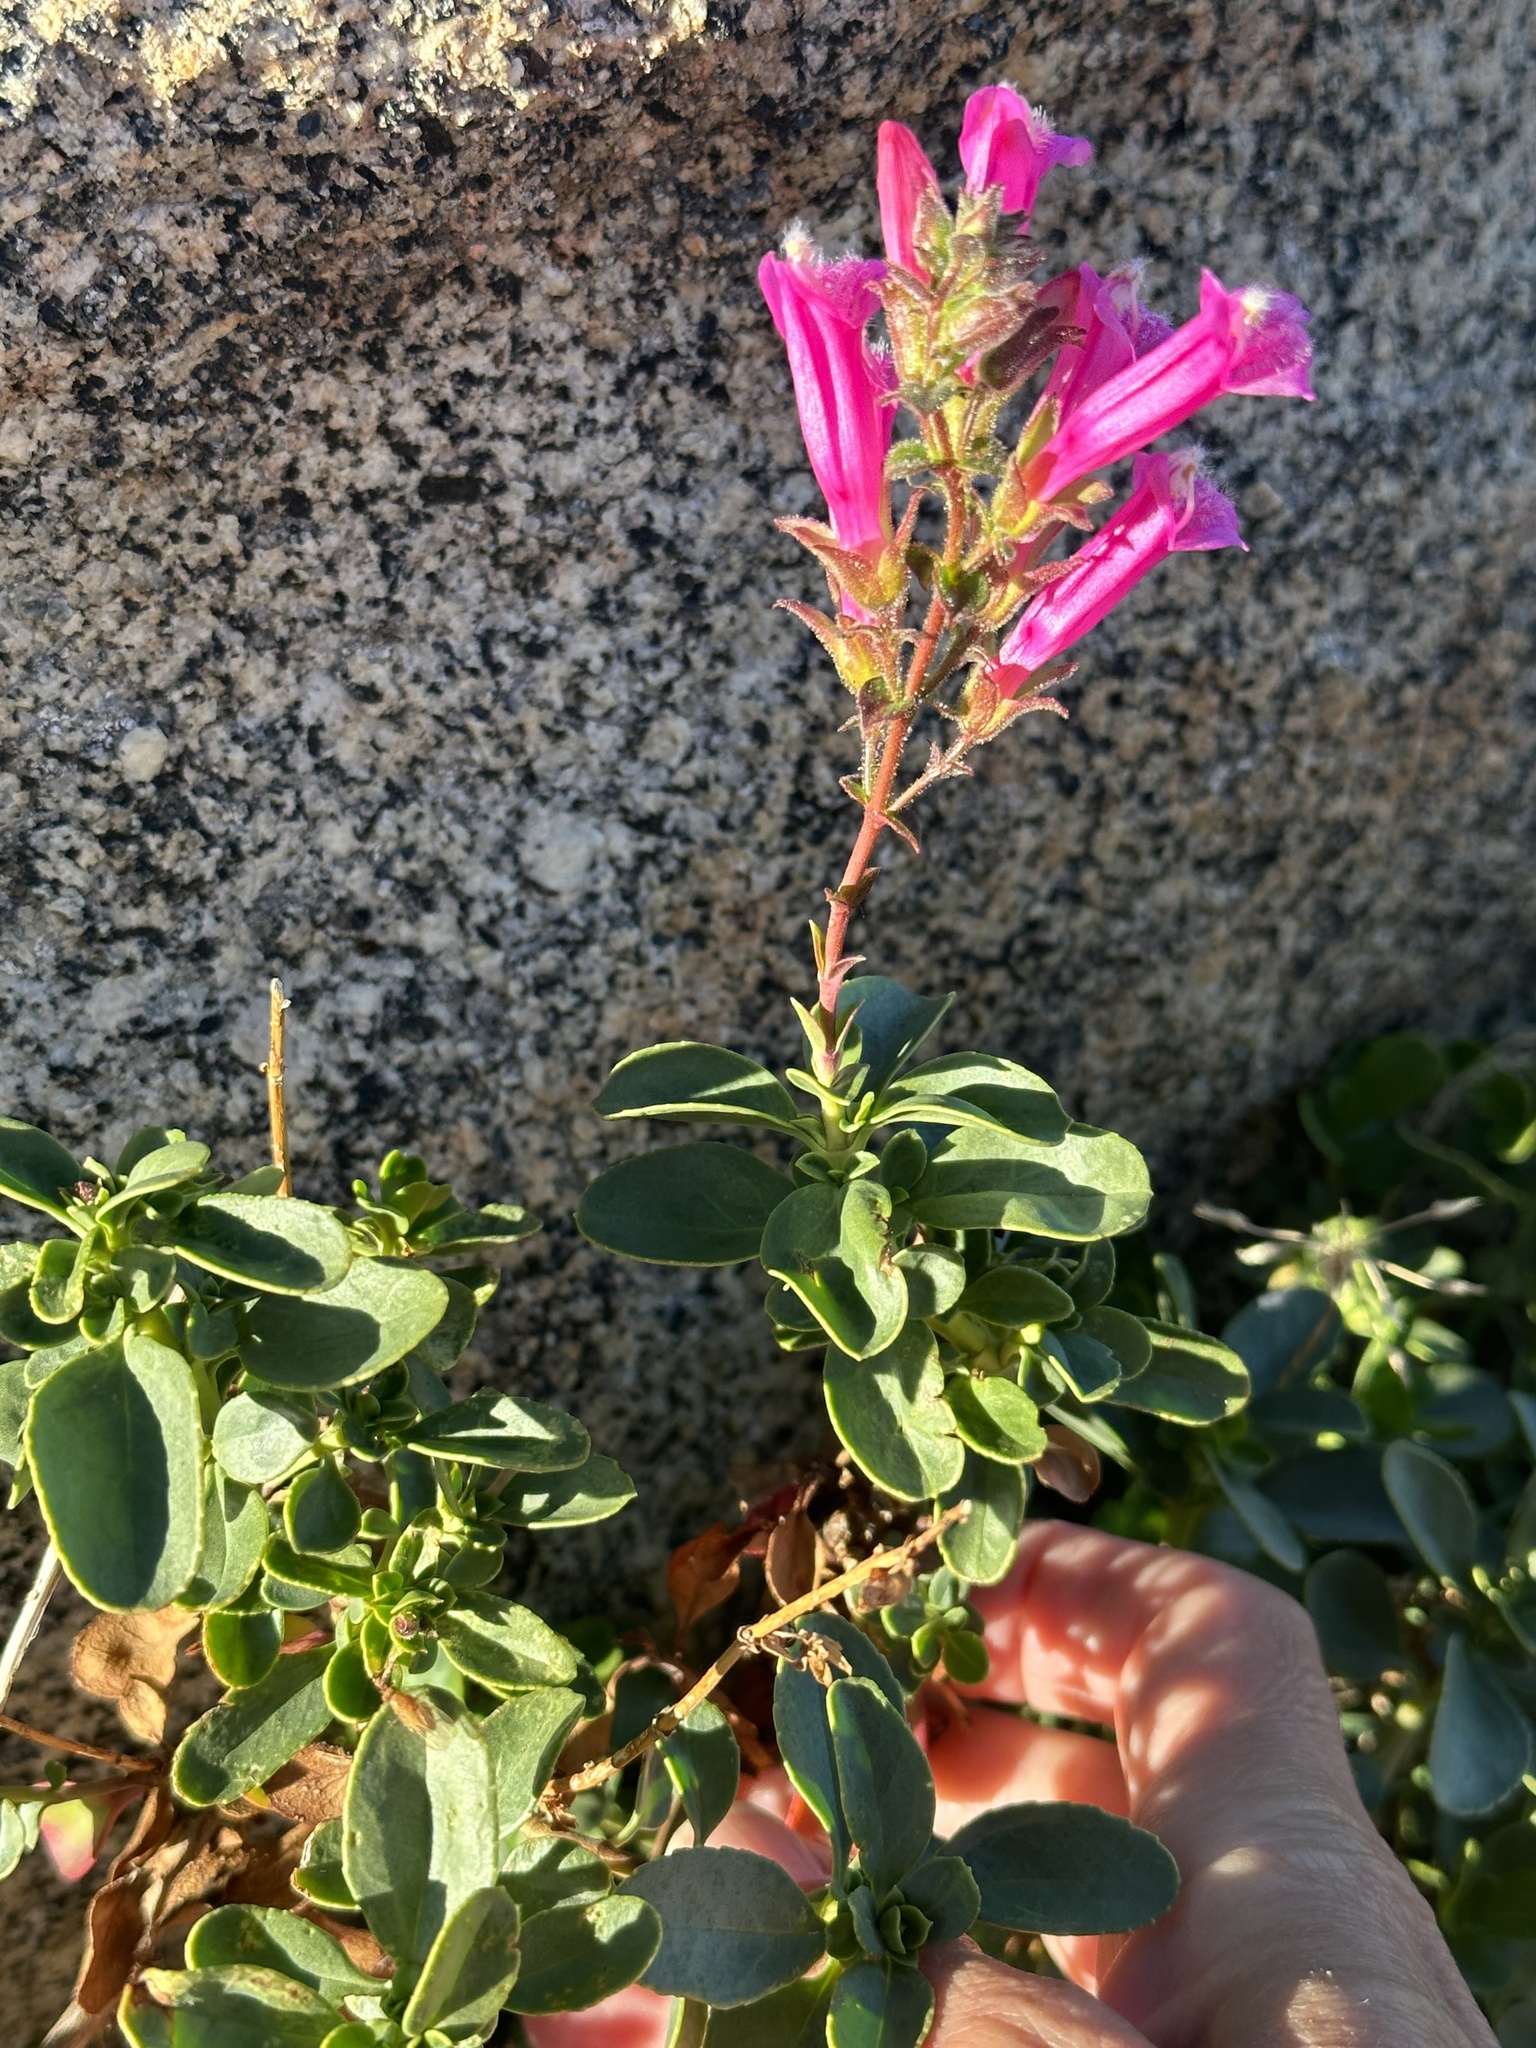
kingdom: Plantae
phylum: Tracheophyta
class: Magnoliopsida
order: Lamiales
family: Plantaginaceae
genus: Penstemon
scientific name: Penstemon newberryi
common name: Mountain-pride
